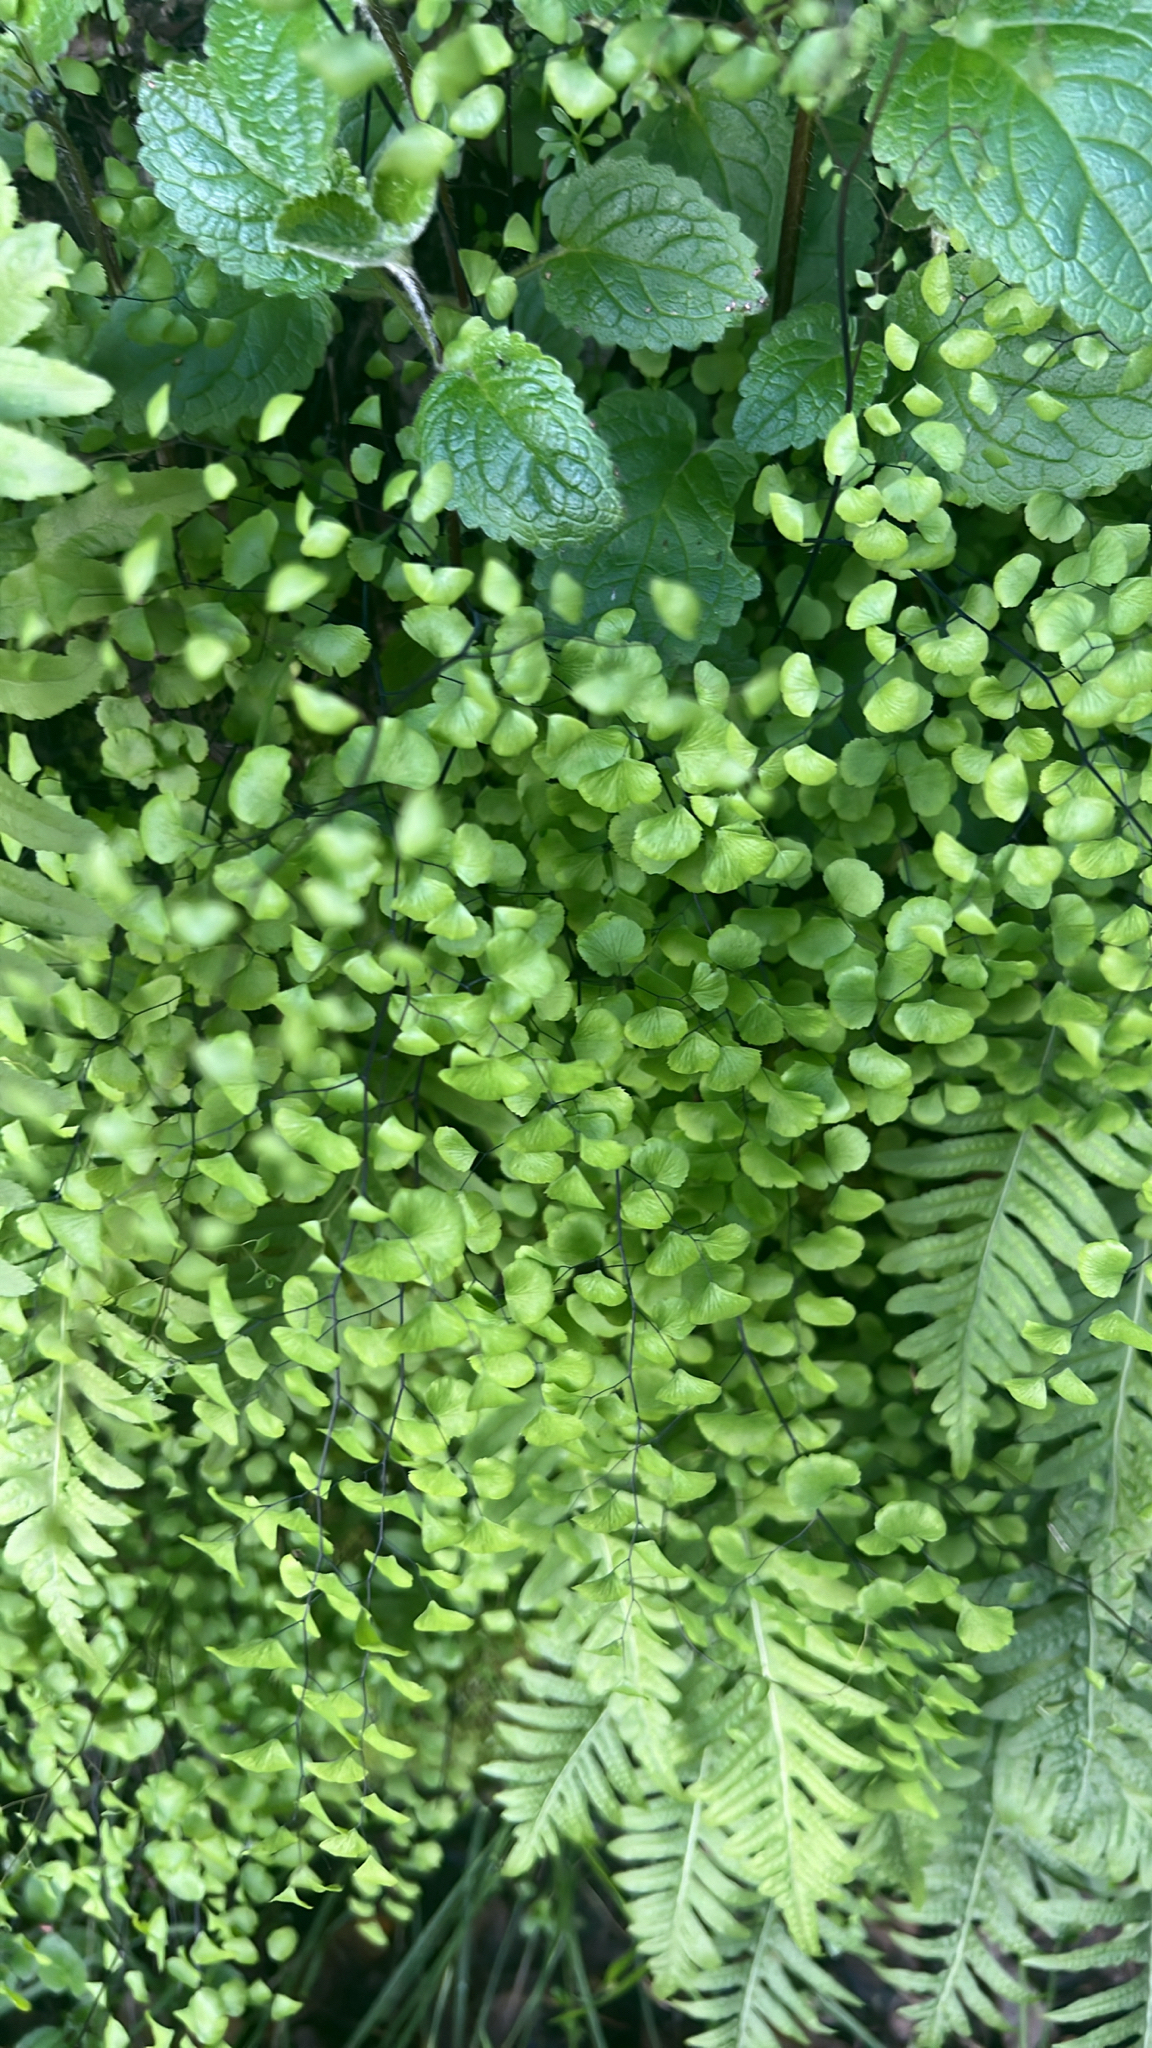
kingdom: Plantae
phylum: Tracheophyta
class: Polypodiopsida
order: Polypodiales
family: Pteridaceae
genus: Adiantum
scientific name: Adiantum jordanii
